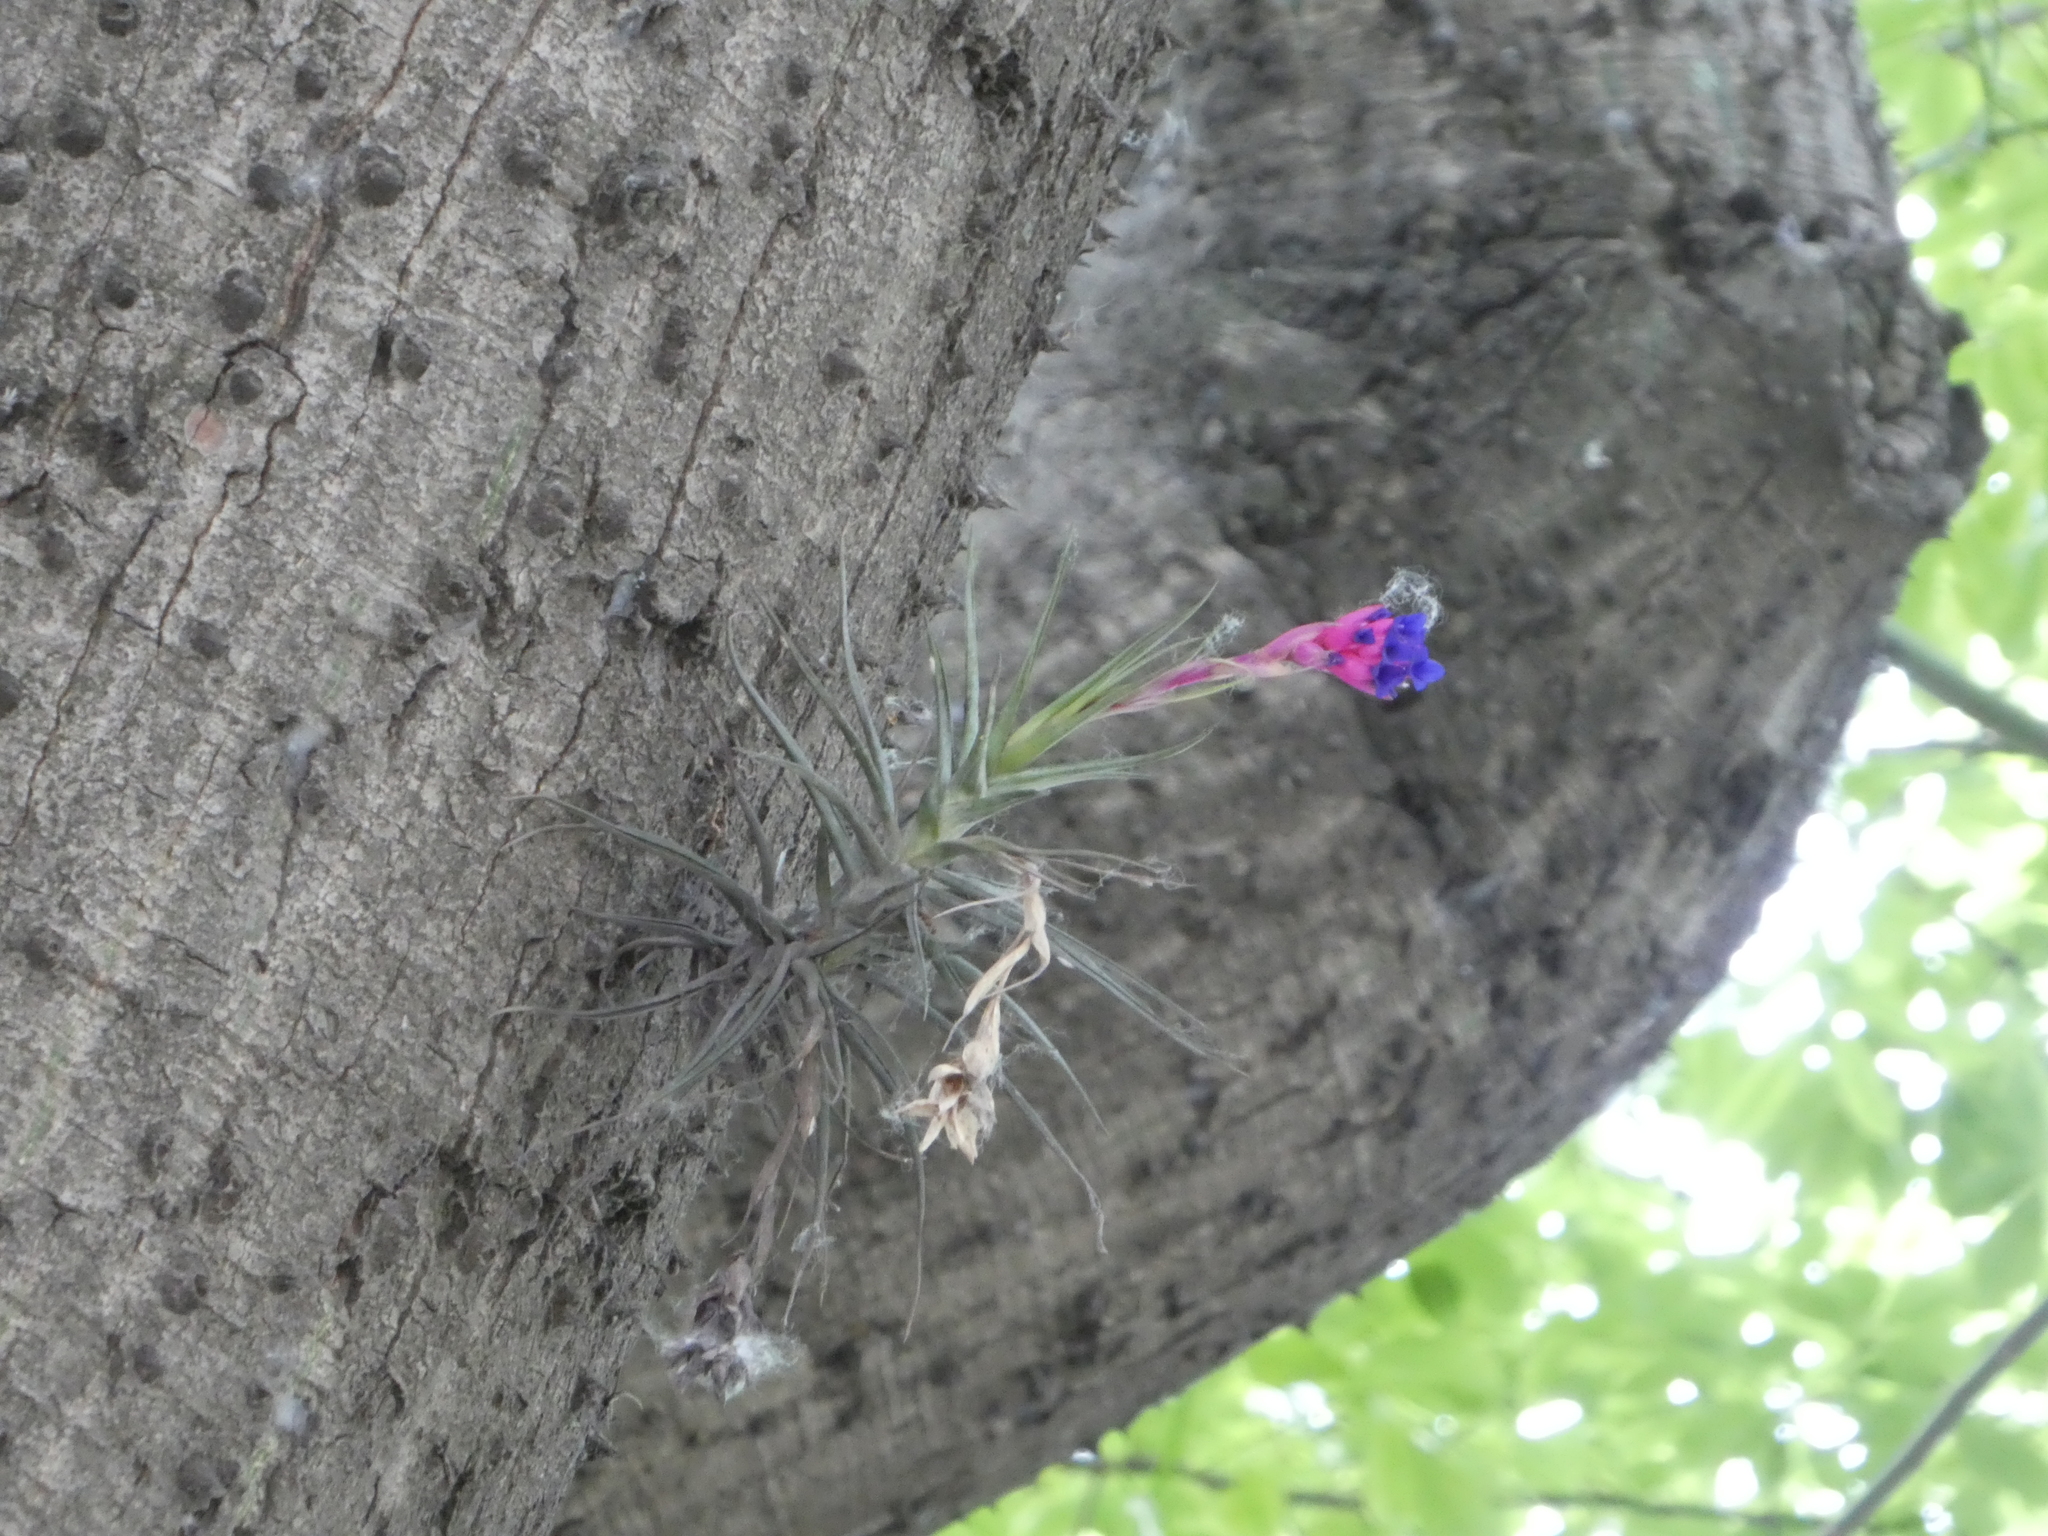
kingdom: Plantae
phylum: Tracheophyta
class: Liliopsida
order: Poales
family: Bromeliaceae
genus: Tillandsia
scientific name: Tillandsia aeranthos
